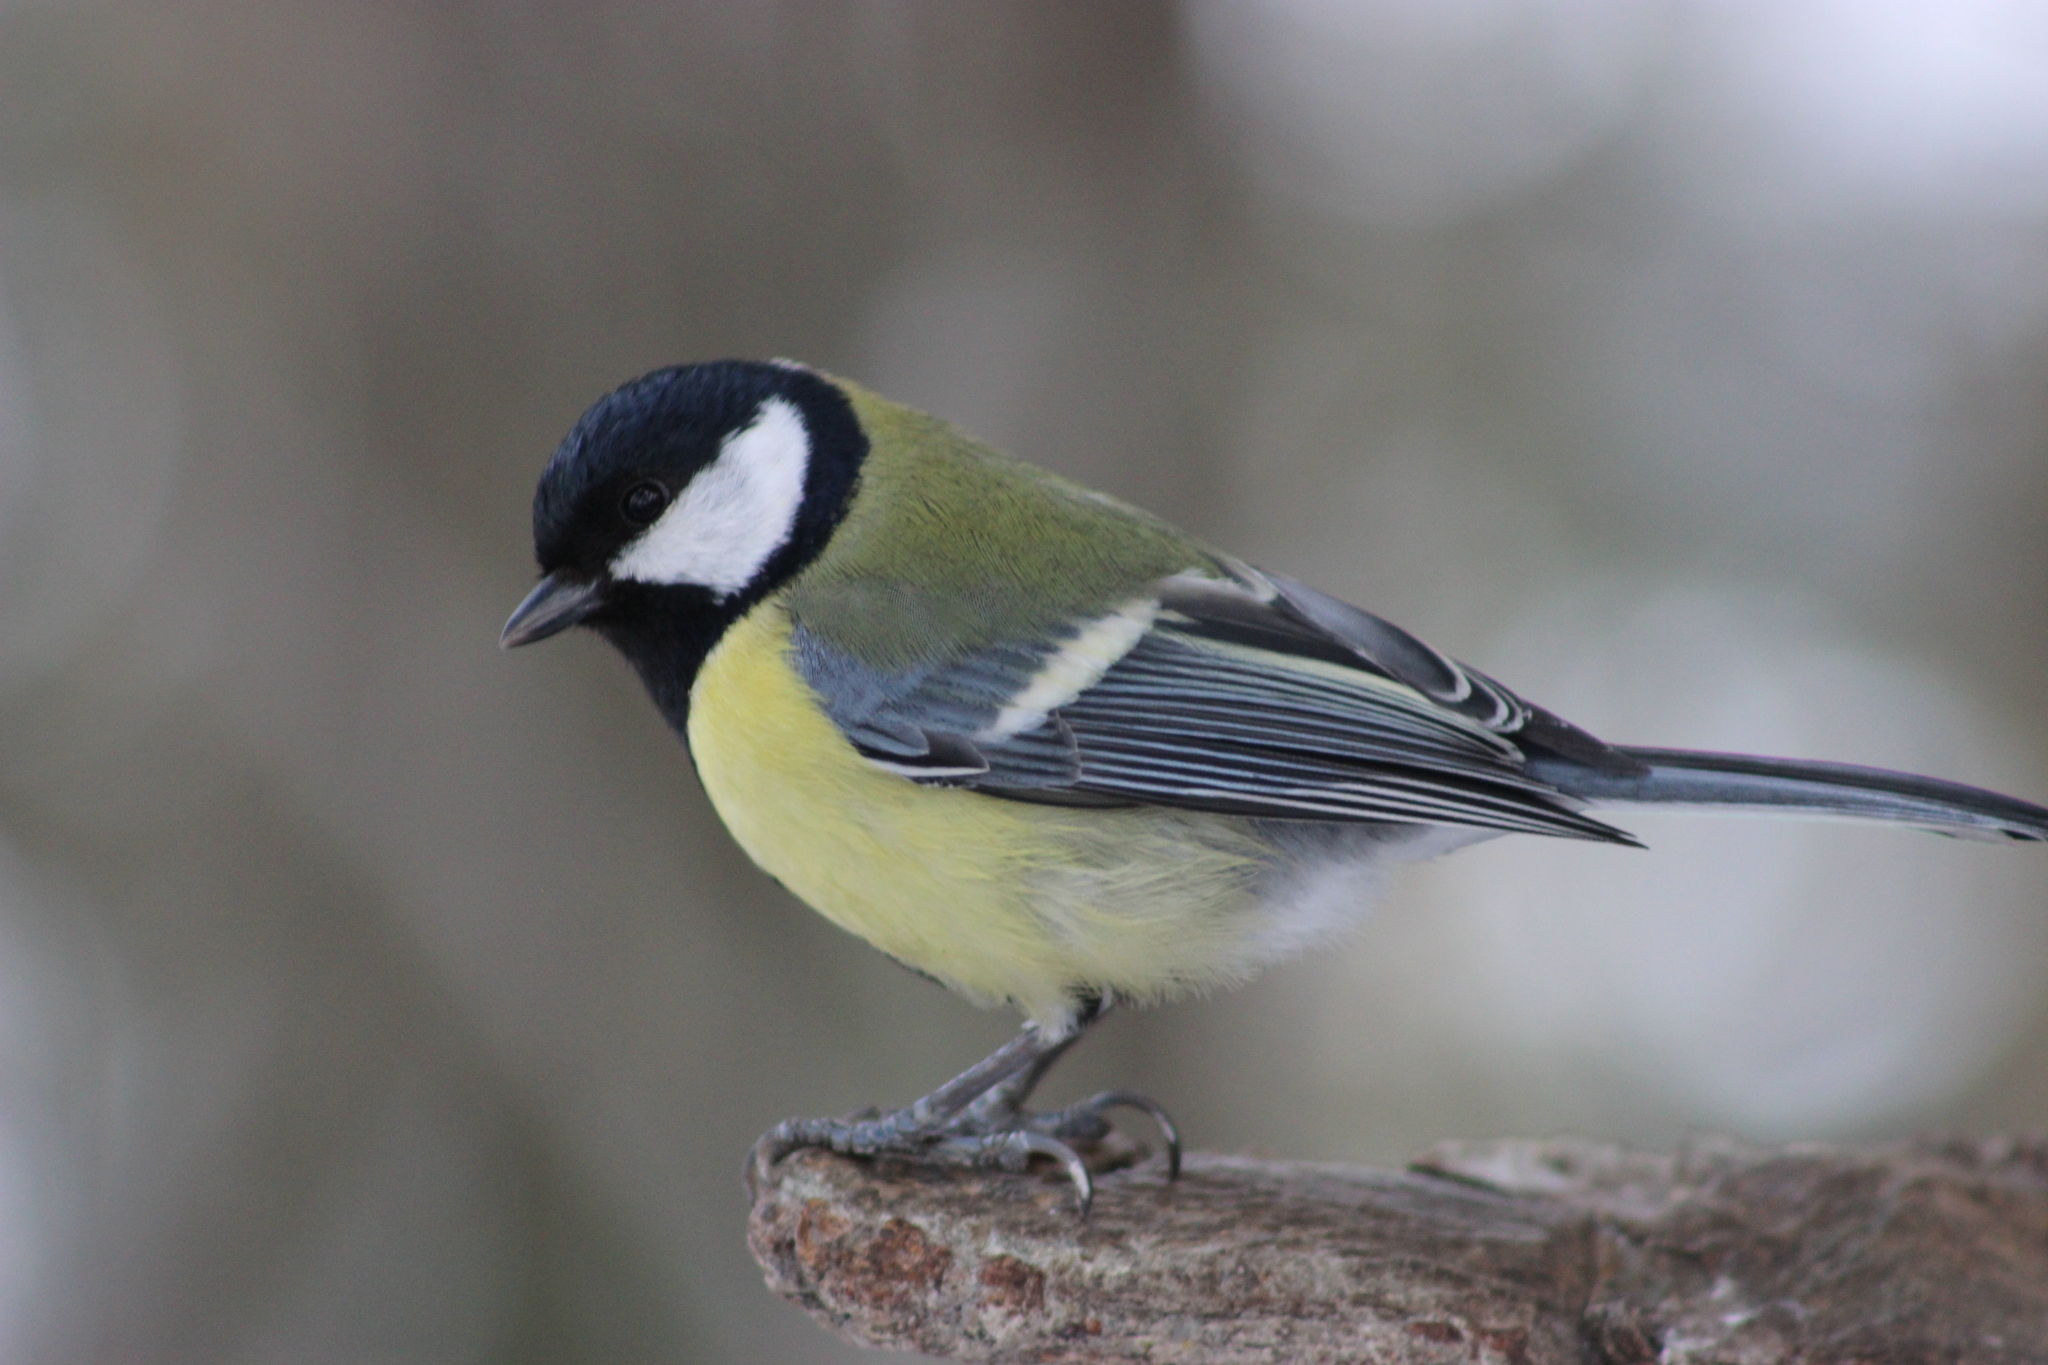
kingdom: Animalia
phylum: Chordata
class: Aves
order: Passeriformes
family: Paridae
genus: Parus
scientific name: Parus major
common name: Great tit
